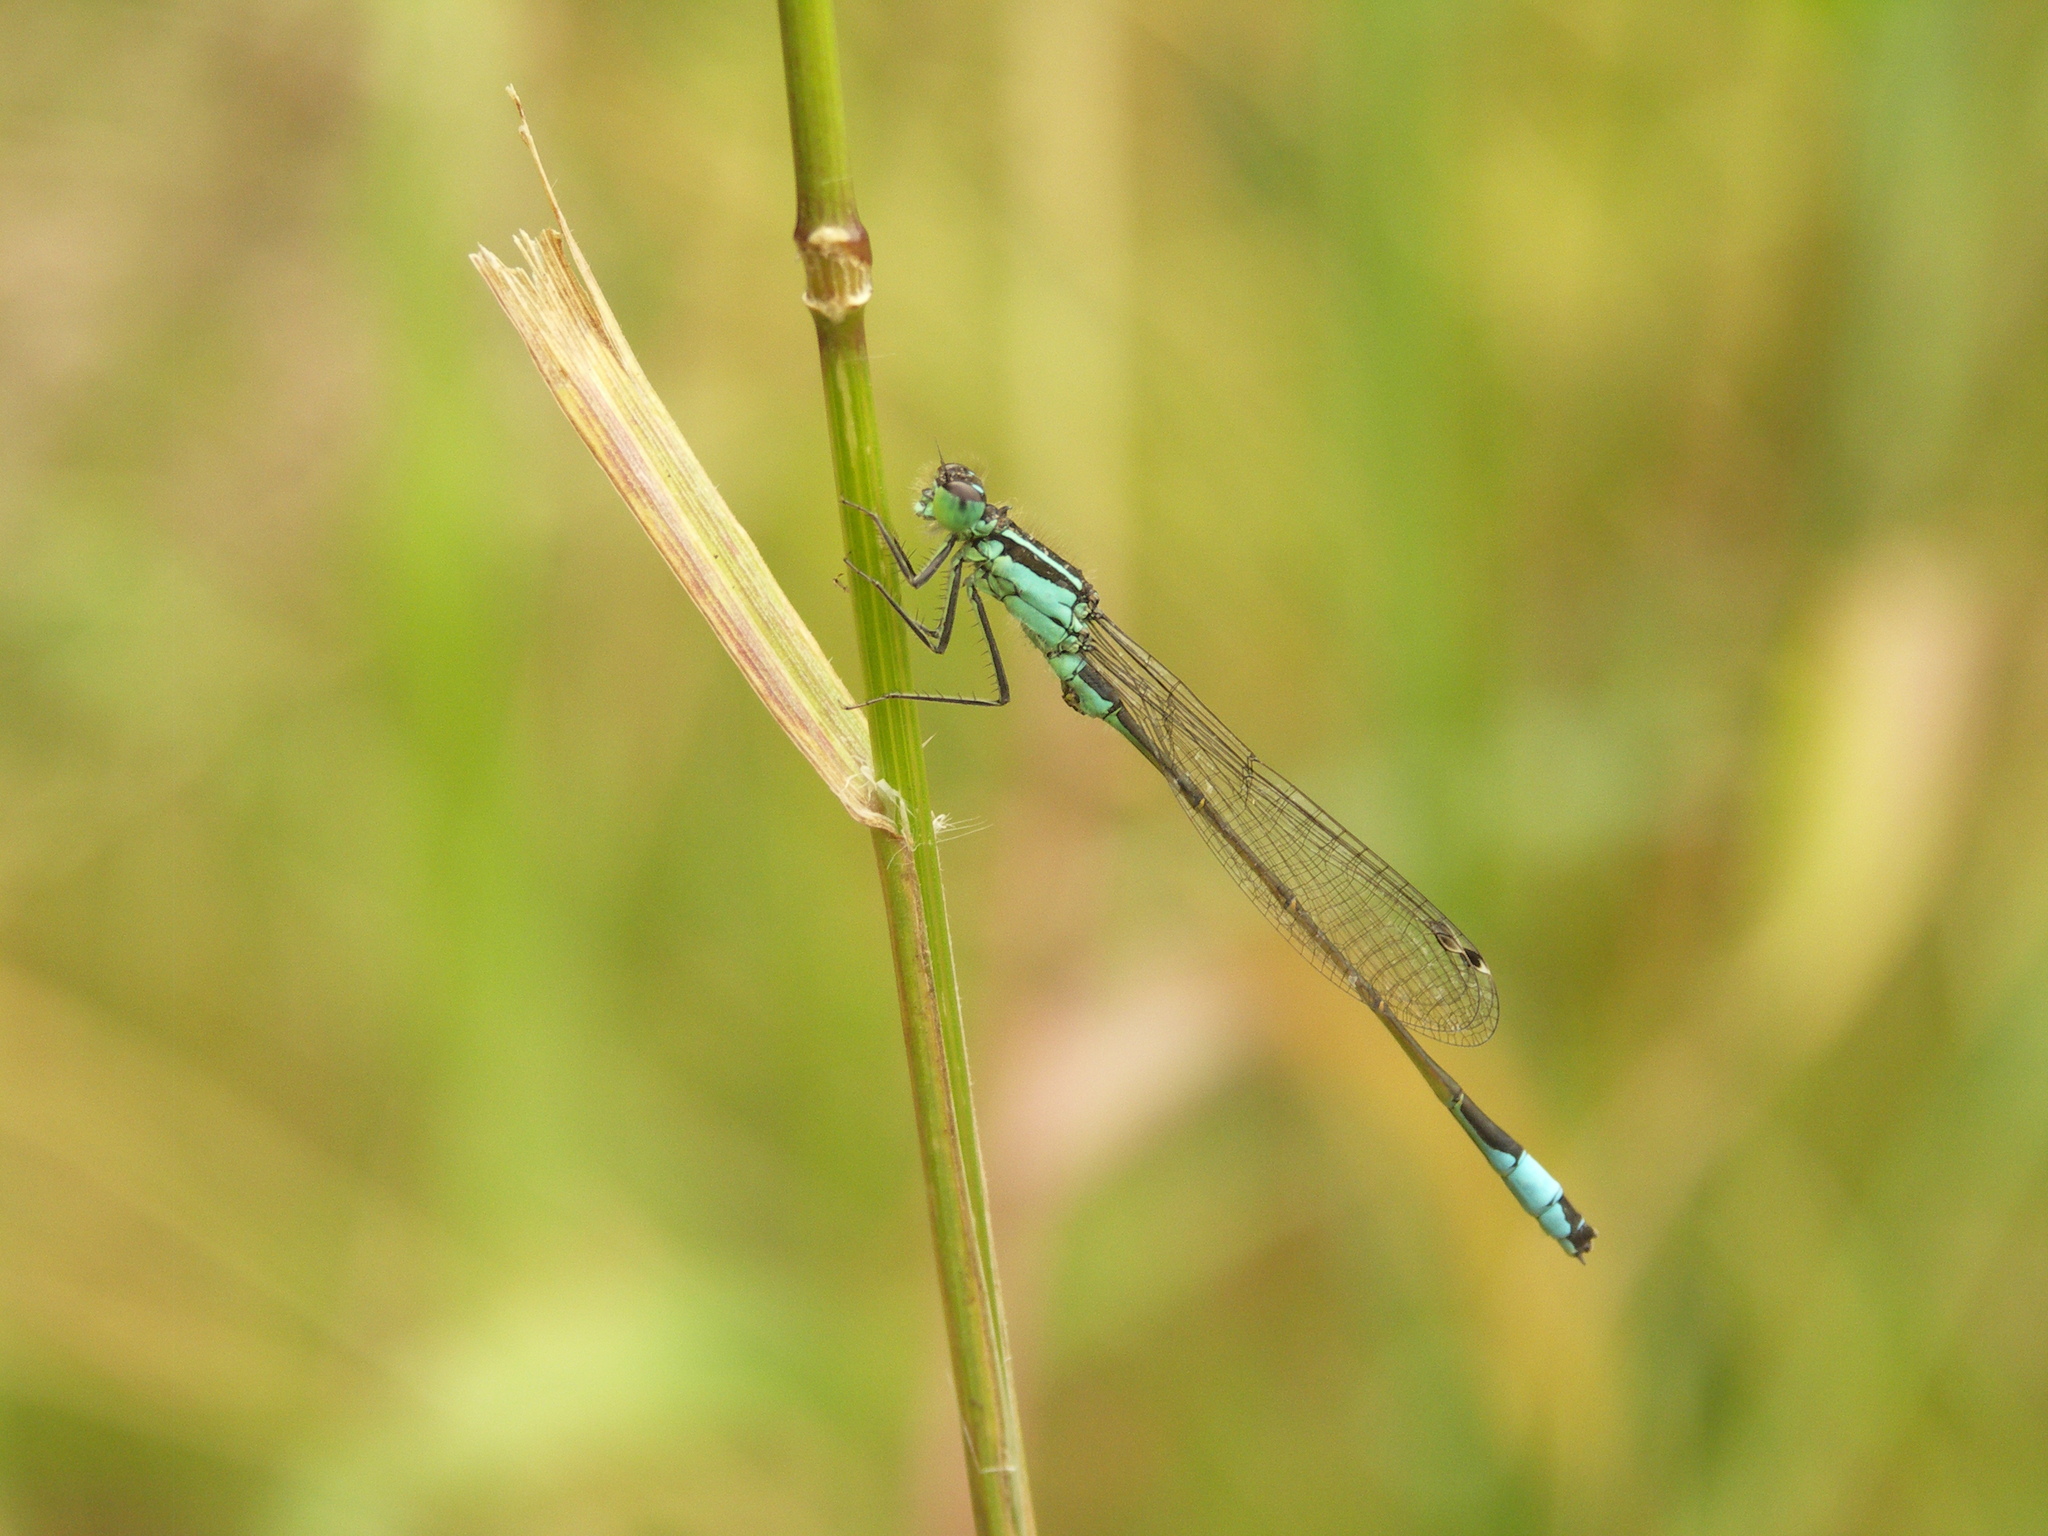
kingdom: Animalia
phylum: Arthropoda
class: Insecta
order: Odonata
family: Coenagrionidae
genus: Ischnura
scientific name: Ischnura elegans
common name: Blue-tailed damselfly
